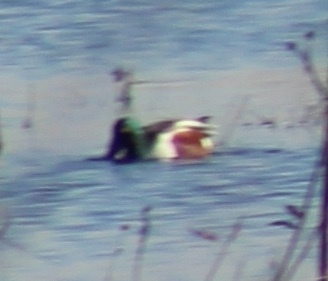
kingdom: Animalia
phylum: Chordata
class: Aves
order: Anseriformes
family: Anatidae
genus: Spatula
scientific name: Spatula clypeata
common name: Northern shoveler
